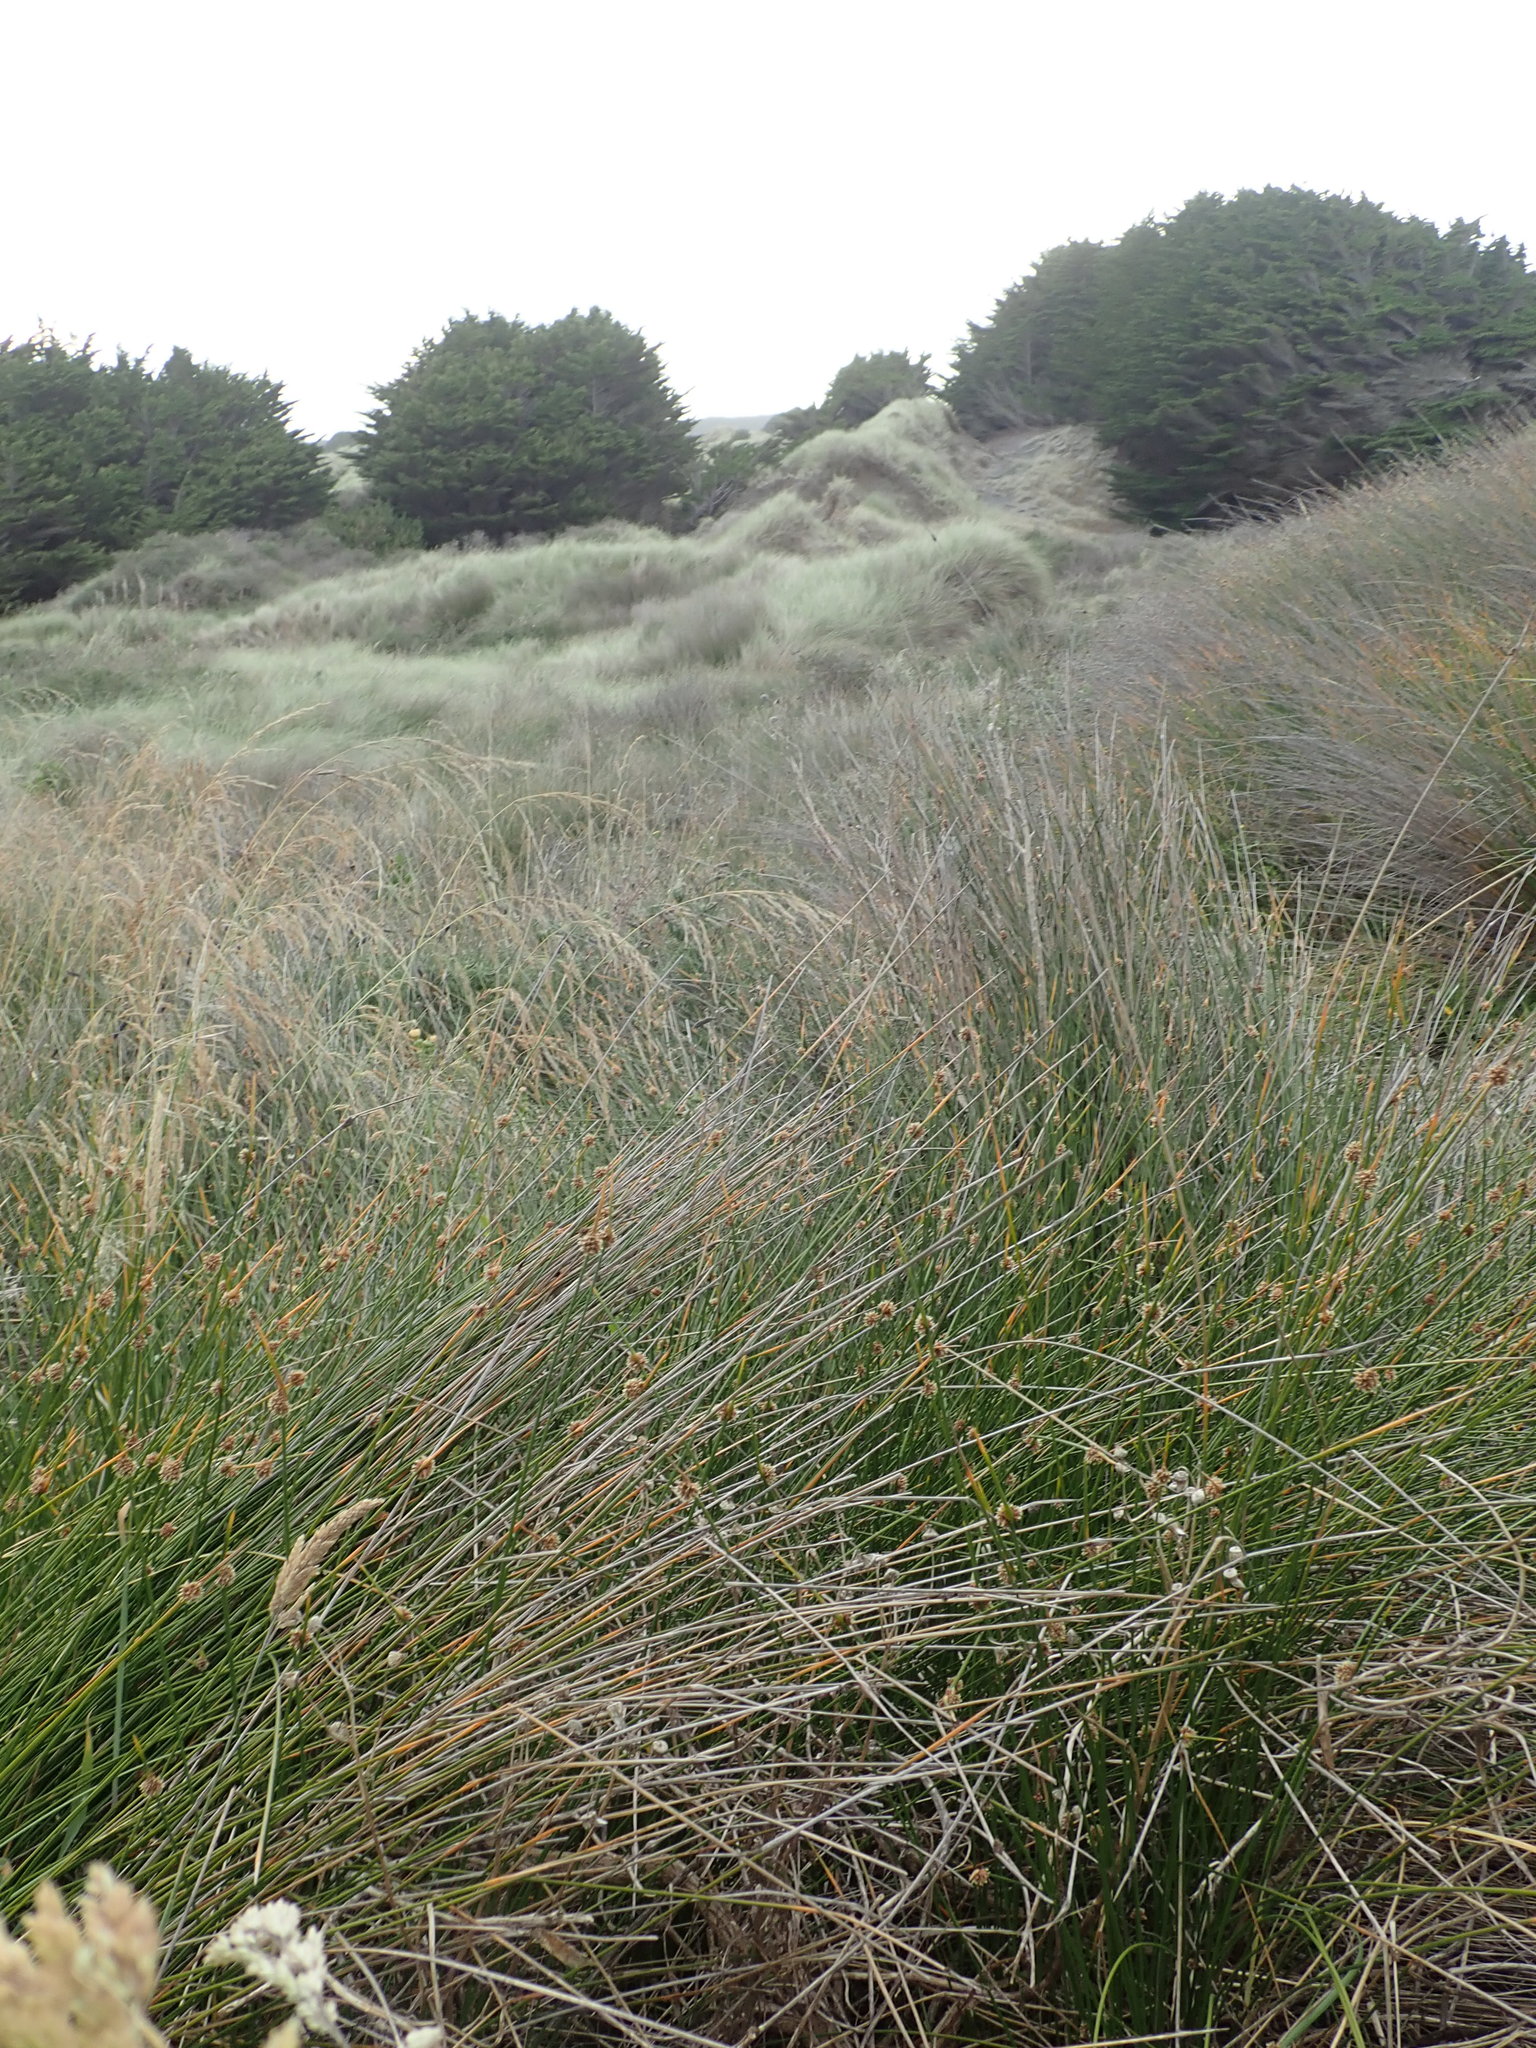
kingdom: Plantae
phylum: Tracheophyta
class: Liliopsida
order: Poales
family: Cyperaceae
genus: Ficinia
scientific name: Ficinia nodosa
